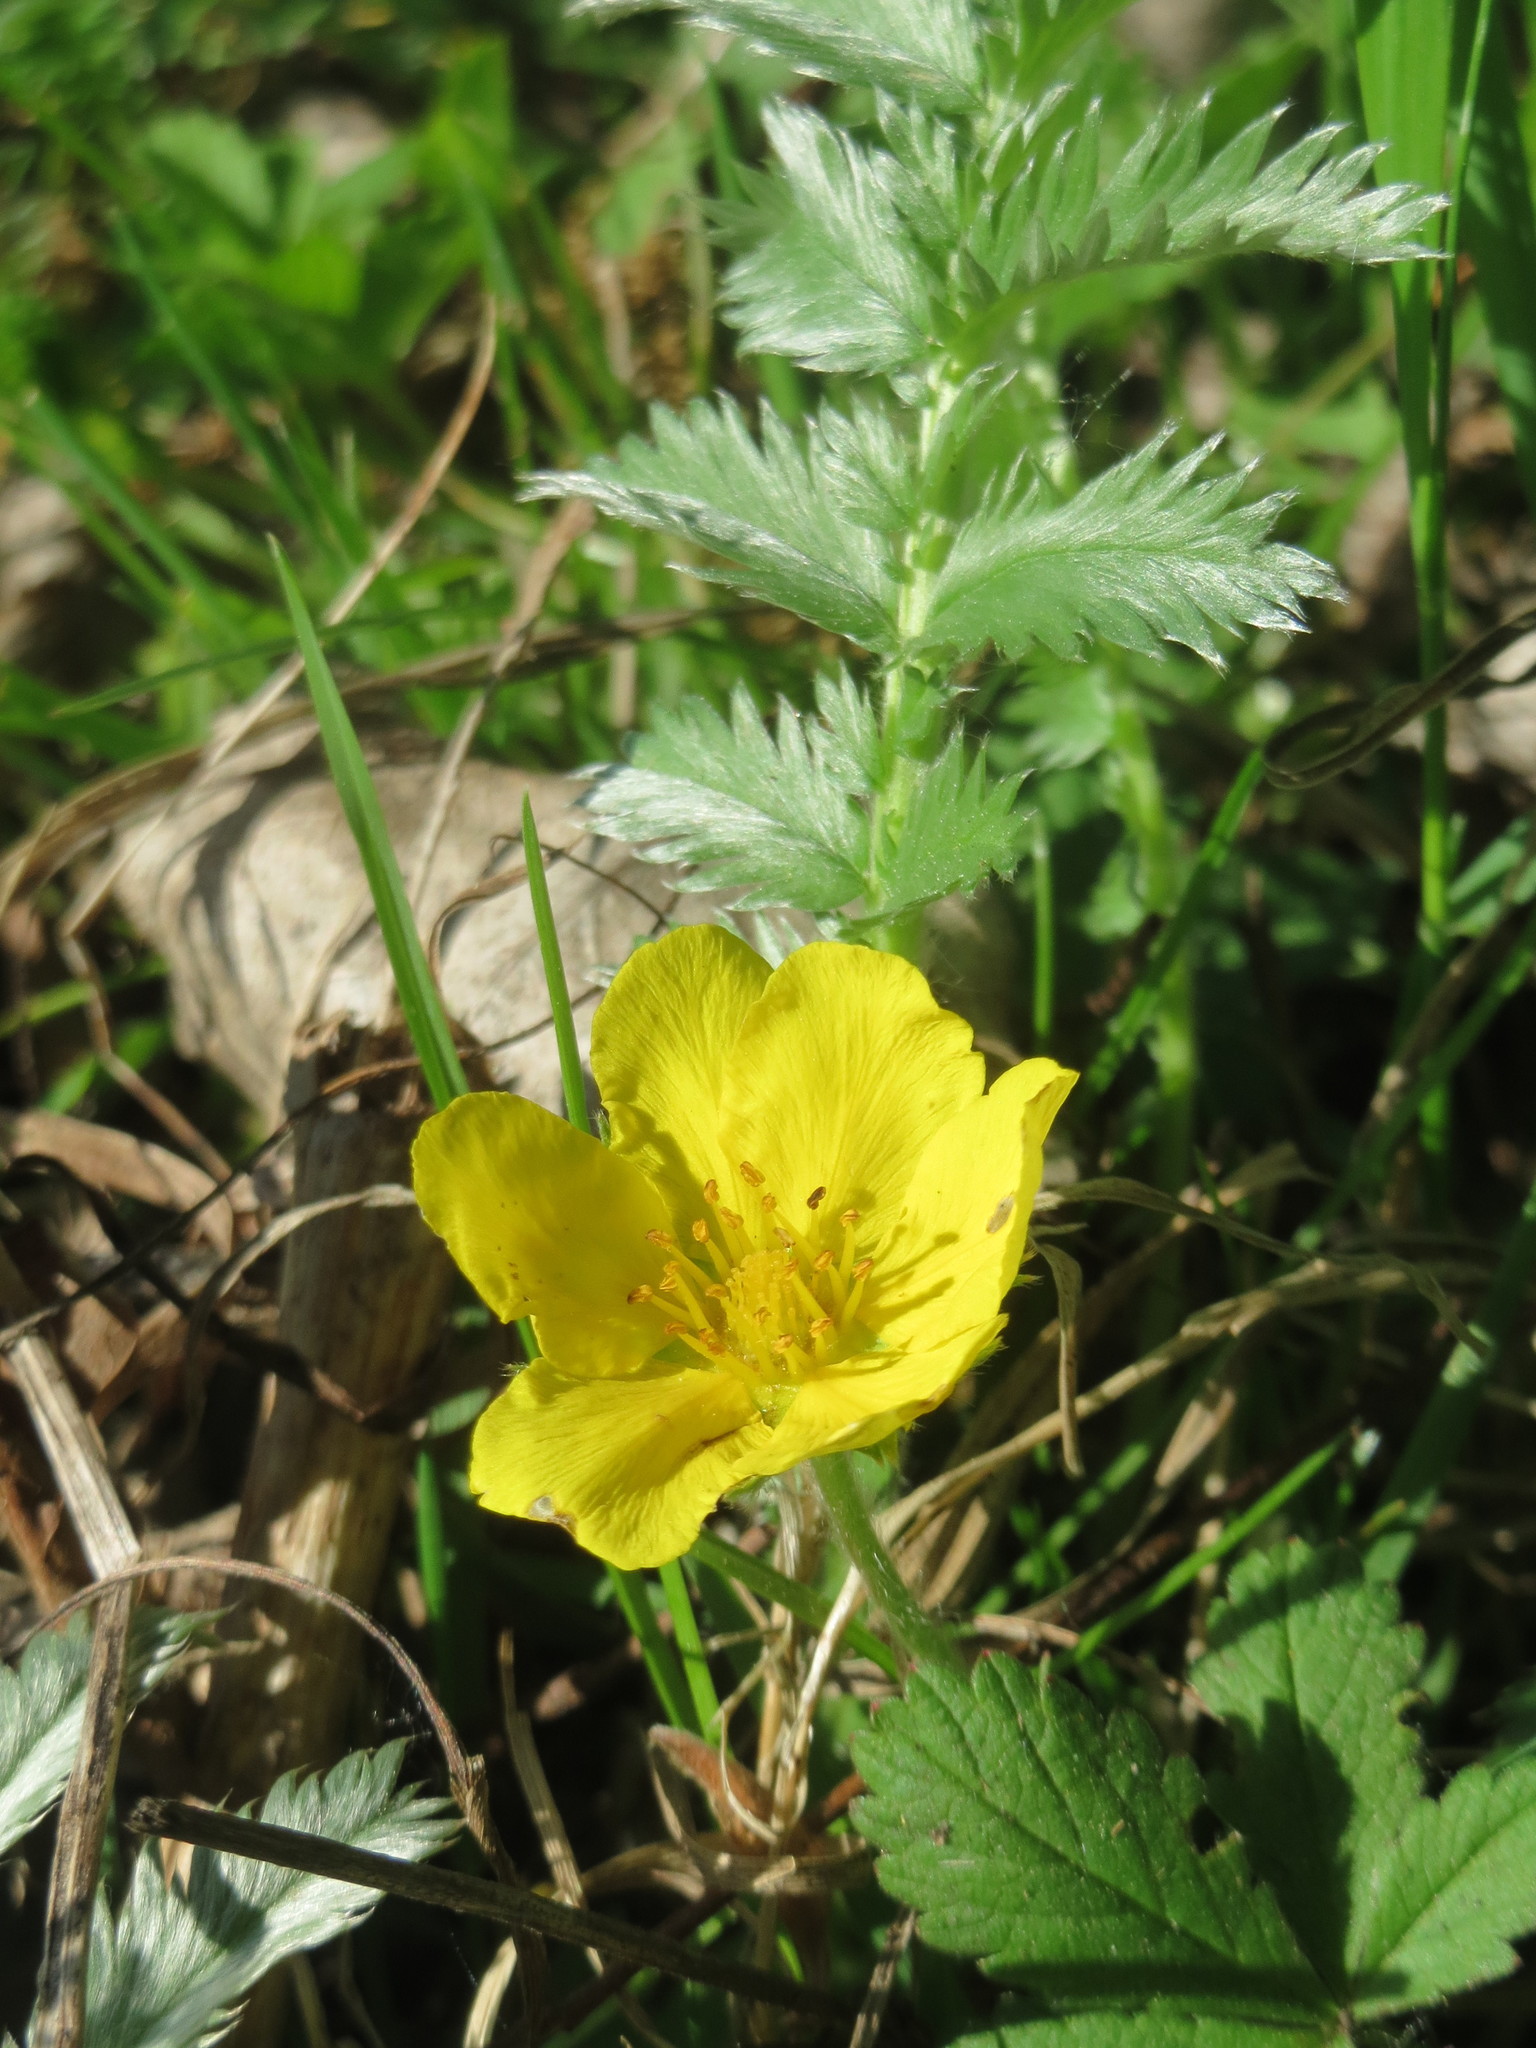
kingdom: Plantae
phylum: Tracheophyta
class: Magnoliopsida
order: Rosales
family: Rosaceae
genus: Argentina
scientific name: Argentina anserina
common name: Common silverweed
